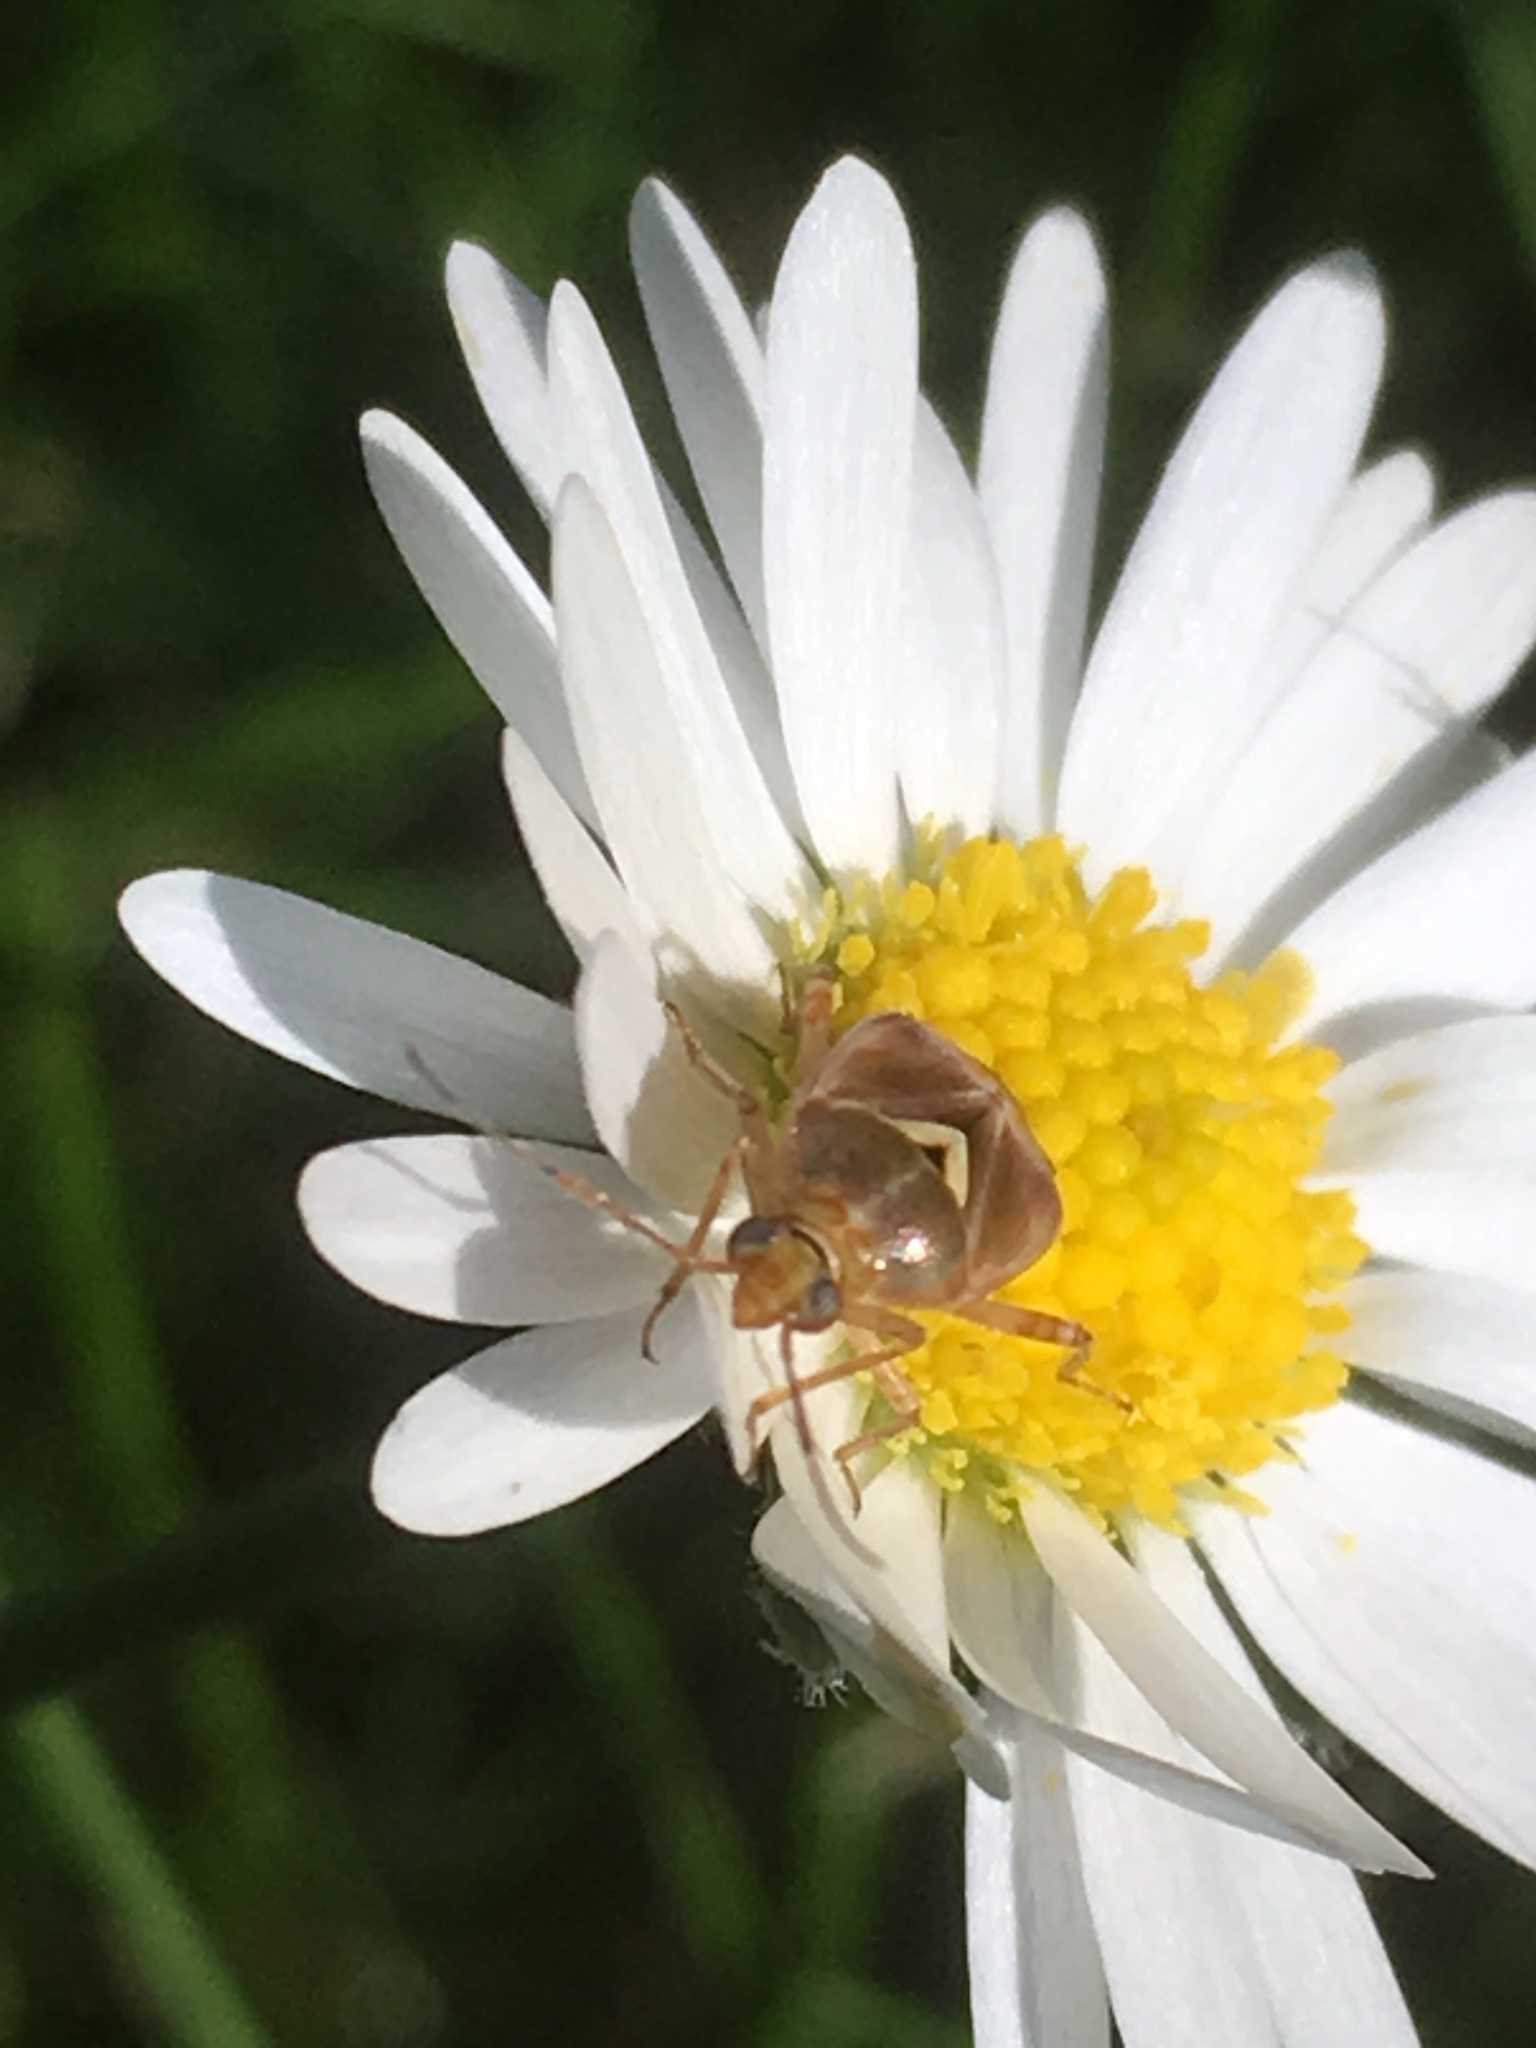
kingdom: Animalia
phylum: Arthropoda
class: Insecta
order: Hemiptera
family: Miridae
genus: Lygus
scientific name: Lygus pratensis
